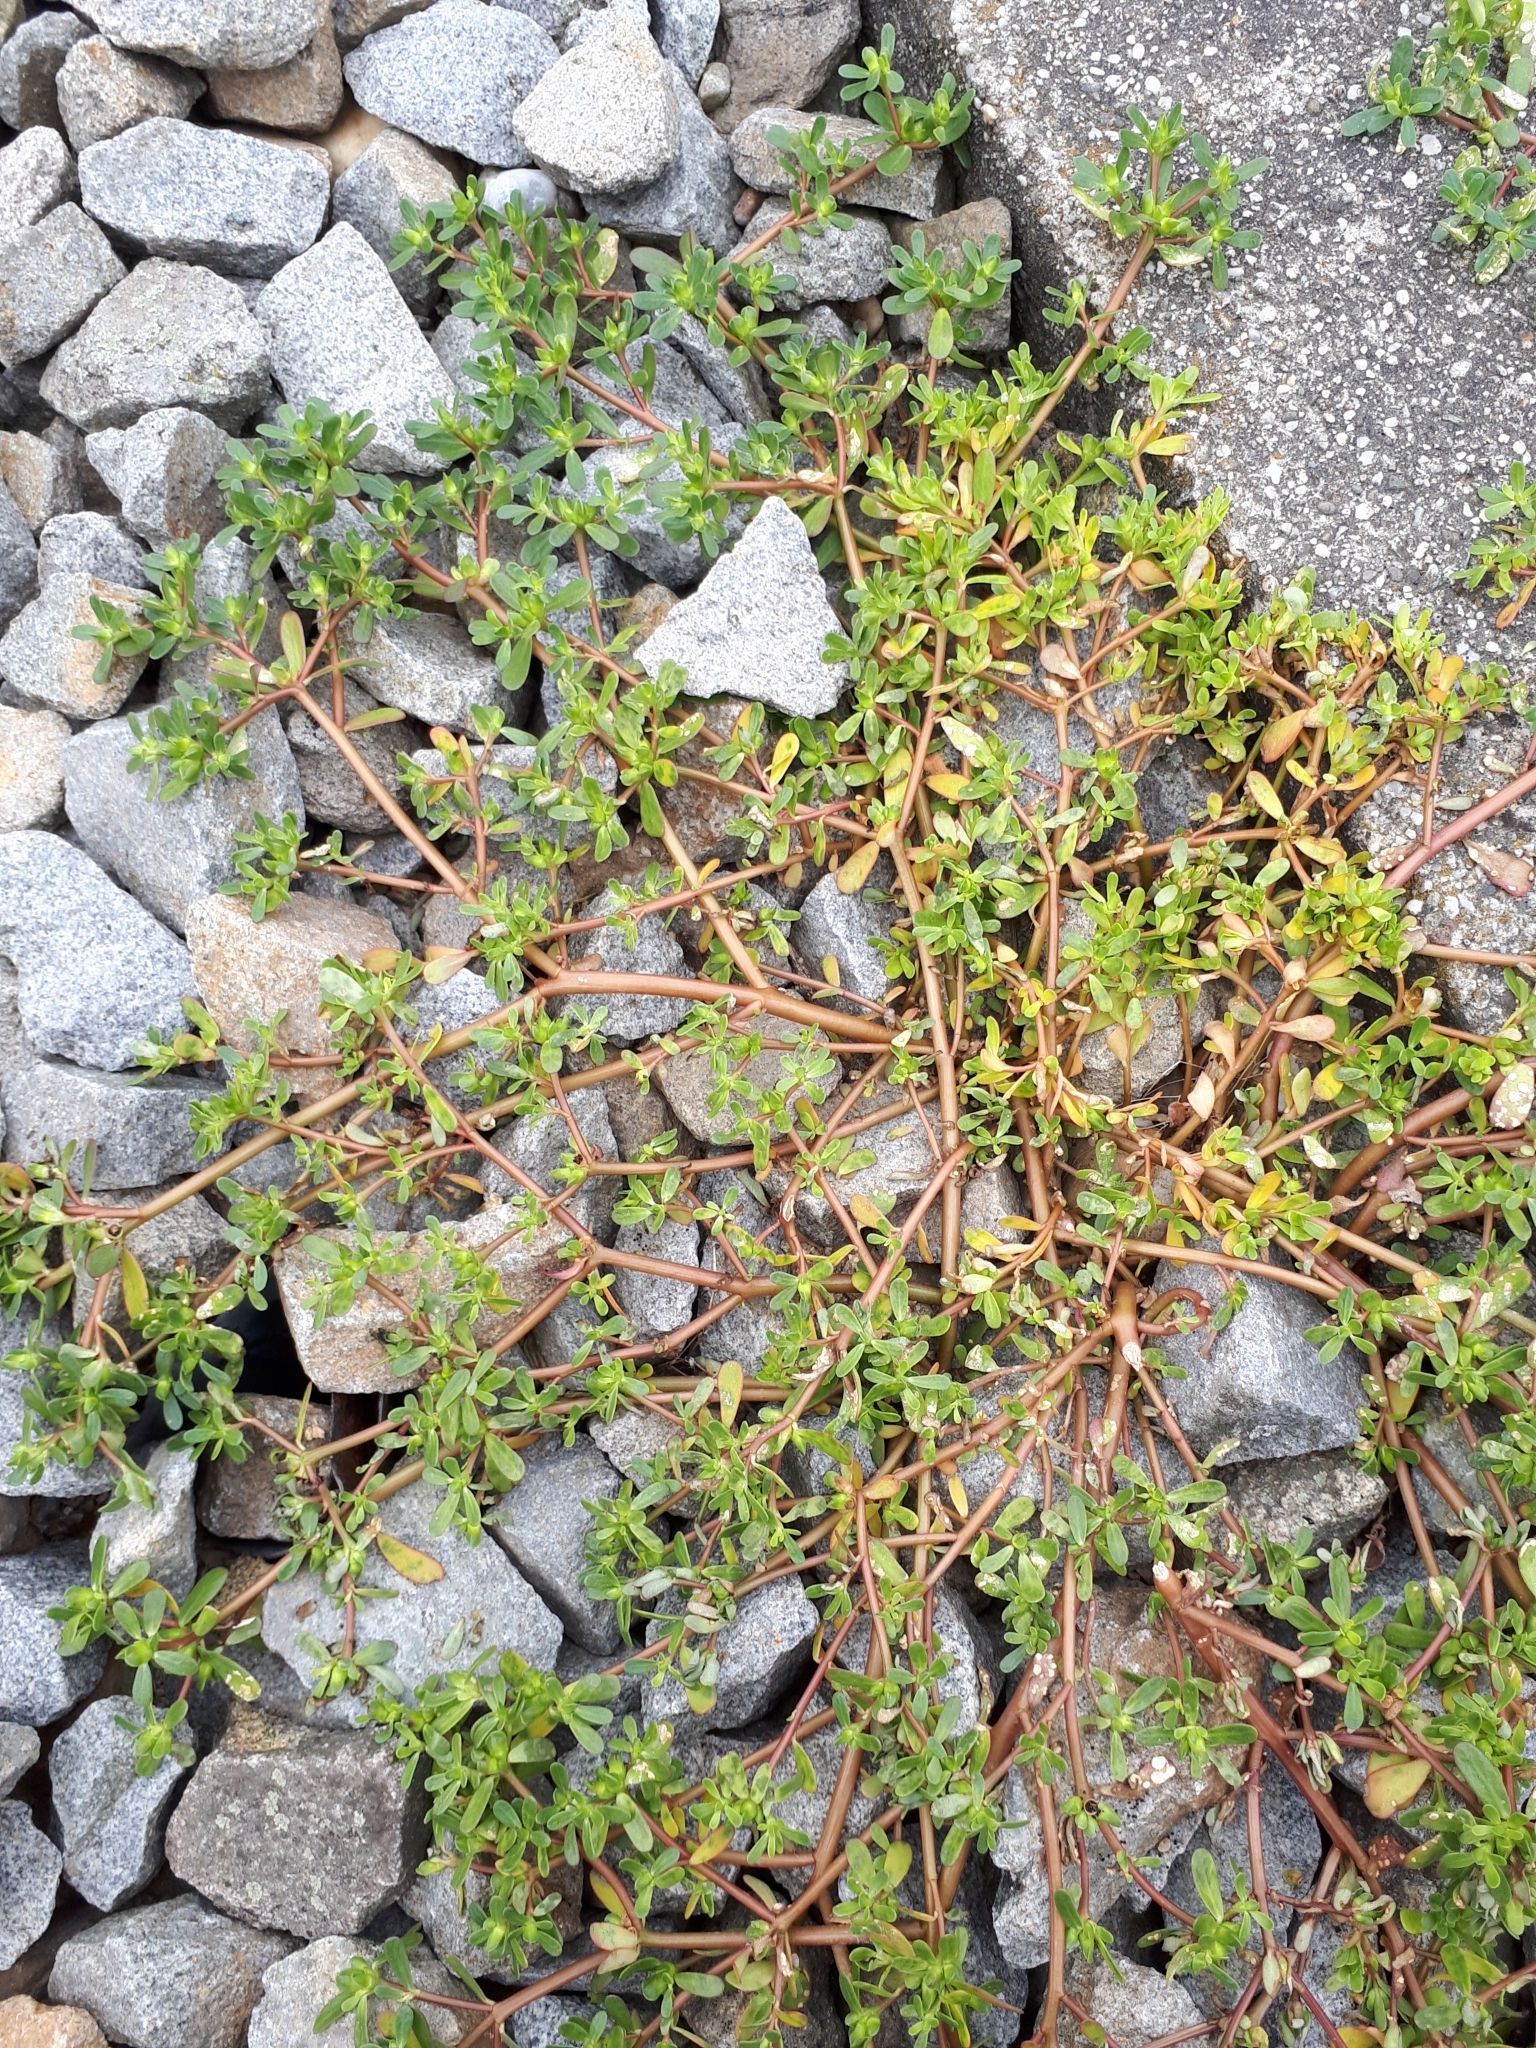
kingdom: Plantae
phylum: Tracheophyta
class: Magnoliopsida
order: Caryophyllales
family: Portulacaceae
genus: Portulaca
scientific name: Portulaca oleracea
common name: Common purslane
